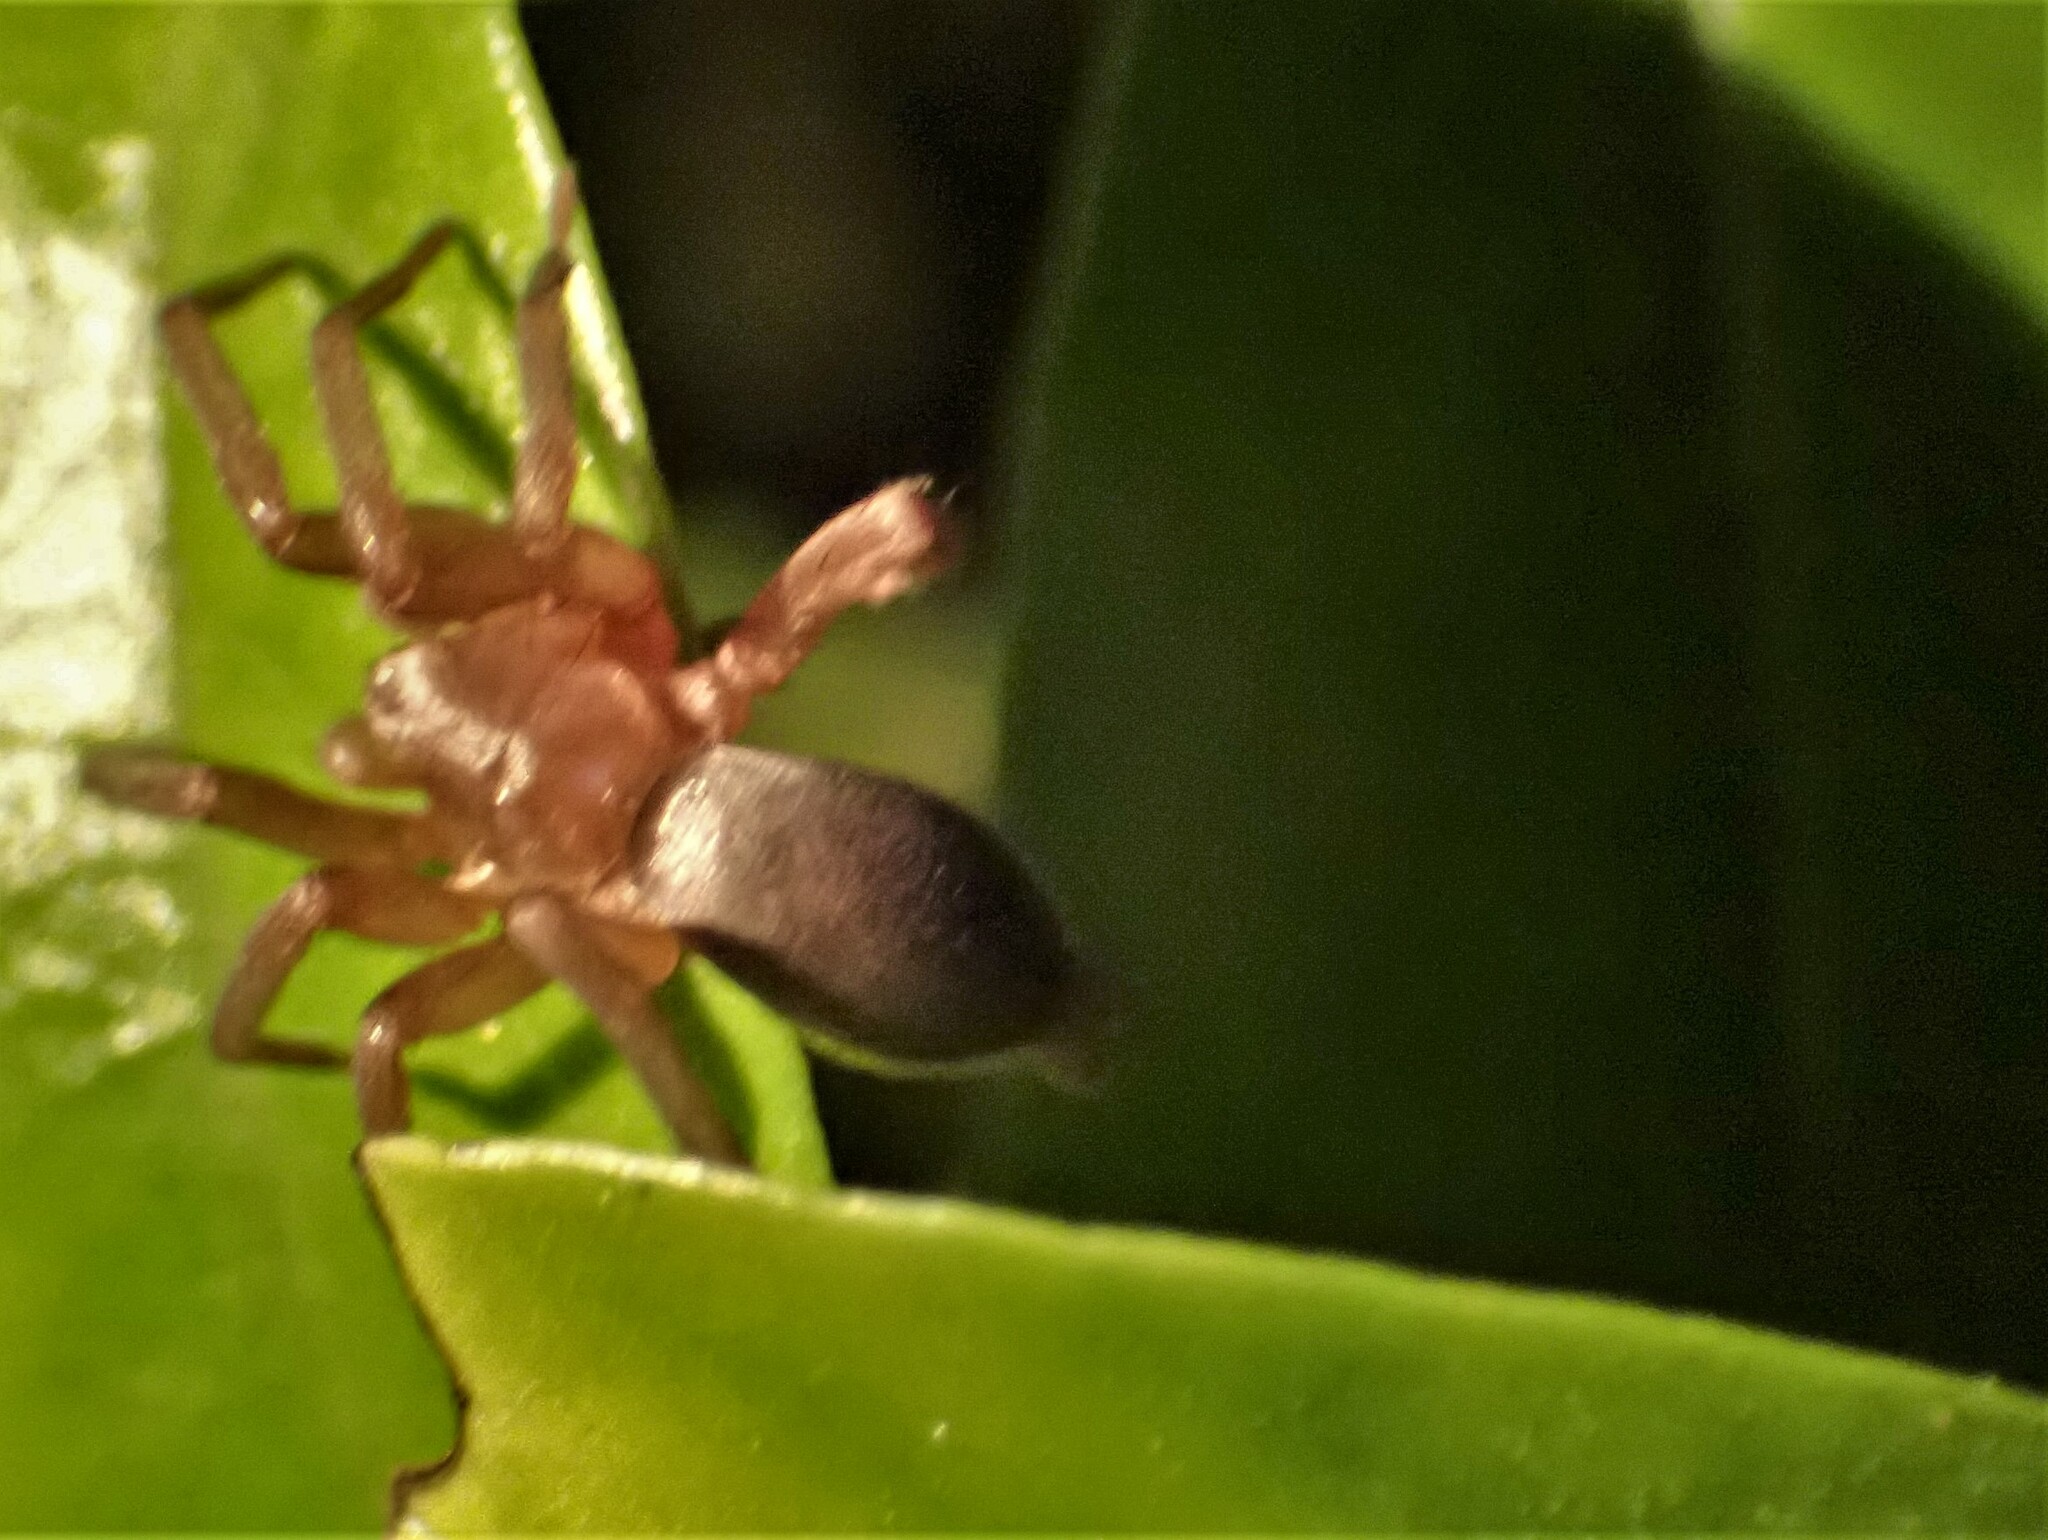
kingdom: Animalia
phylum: Arthropoda
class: Arachnida
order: Araneae
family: Gnaphosidae
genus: Hypodrassodes
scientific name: Hypodrassodes maoricus
